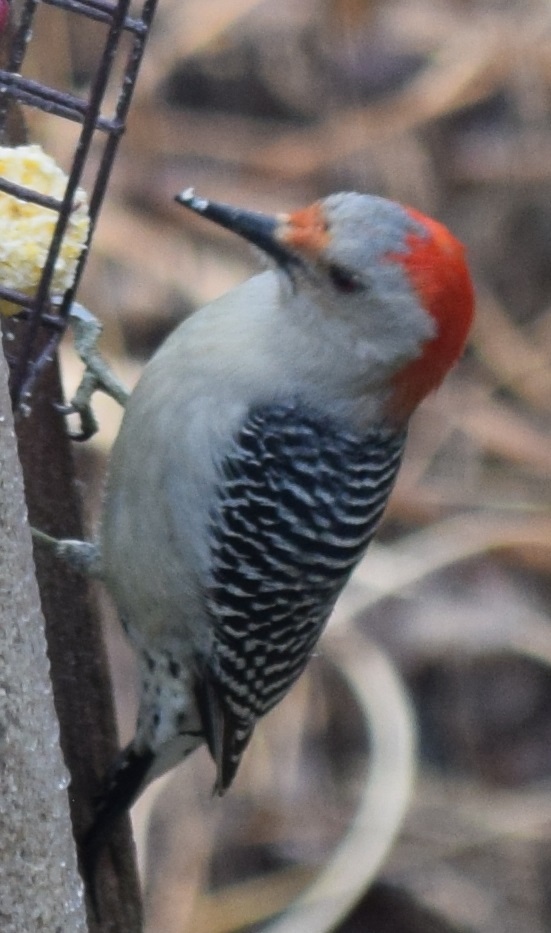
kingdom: Animalia
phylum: Chordata
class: Aves
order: Piciformes
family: Picidae
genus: Melanerpes
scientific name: Melanerpes carolinus
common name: Red-bellied woodpecker
